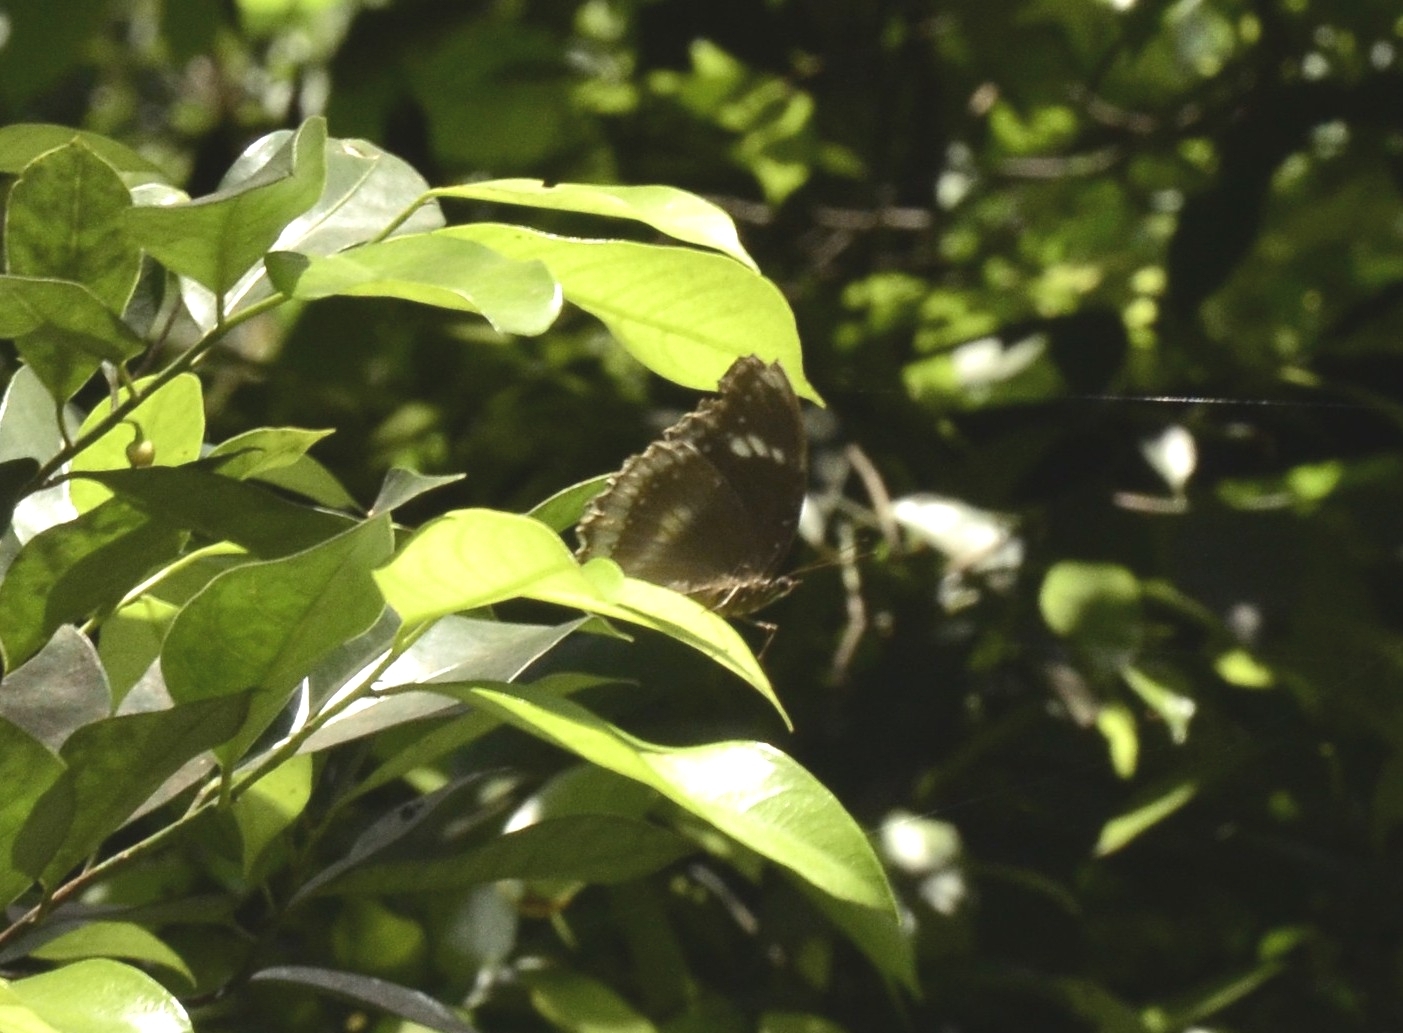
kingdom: Animalia
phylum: Arthropoda
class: Insecta
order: Lepidoptera
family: Nymphalidae
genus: Hypolimnas
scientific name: Hypolimnas bolina
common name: Great eggfly
